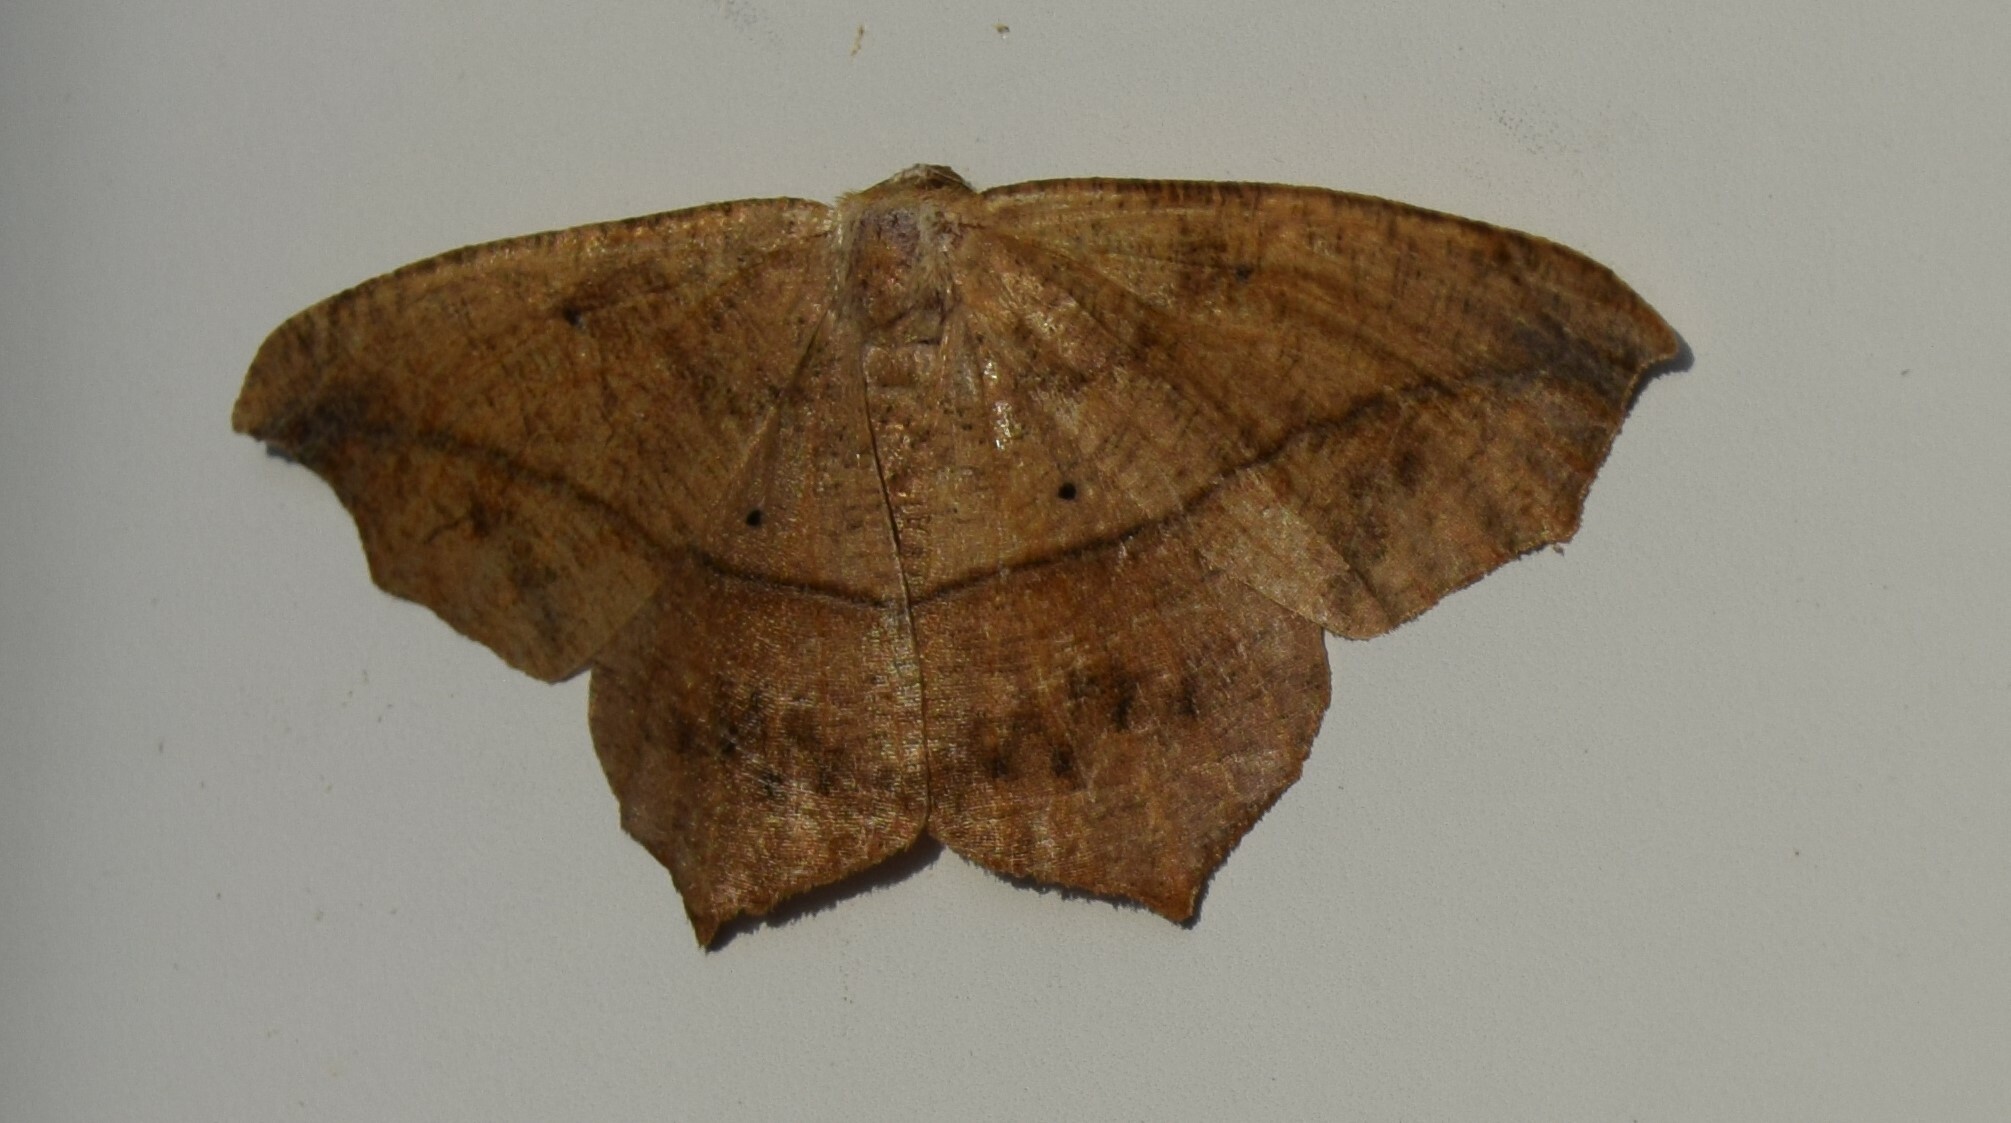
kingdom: Animalia
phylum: Arthropoda
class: Insecta
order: Lepidoptera
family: Geometridae
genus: Prochoerodes
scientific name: Prochoerodes lineola
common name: Large maple spanworm
